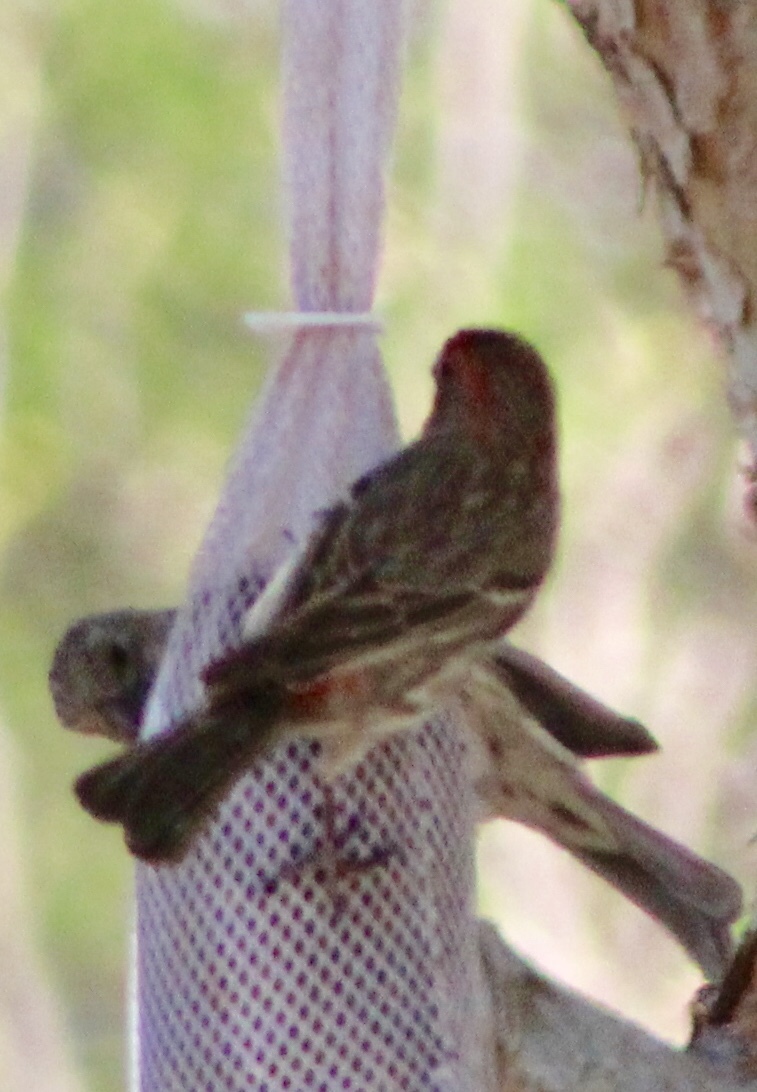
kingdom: Animalia
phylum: Chordata
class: Aves
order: Passeriformes
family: Fringillidae
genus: Haemorhous
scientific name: Haemorhous mexicanus
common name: House finch
